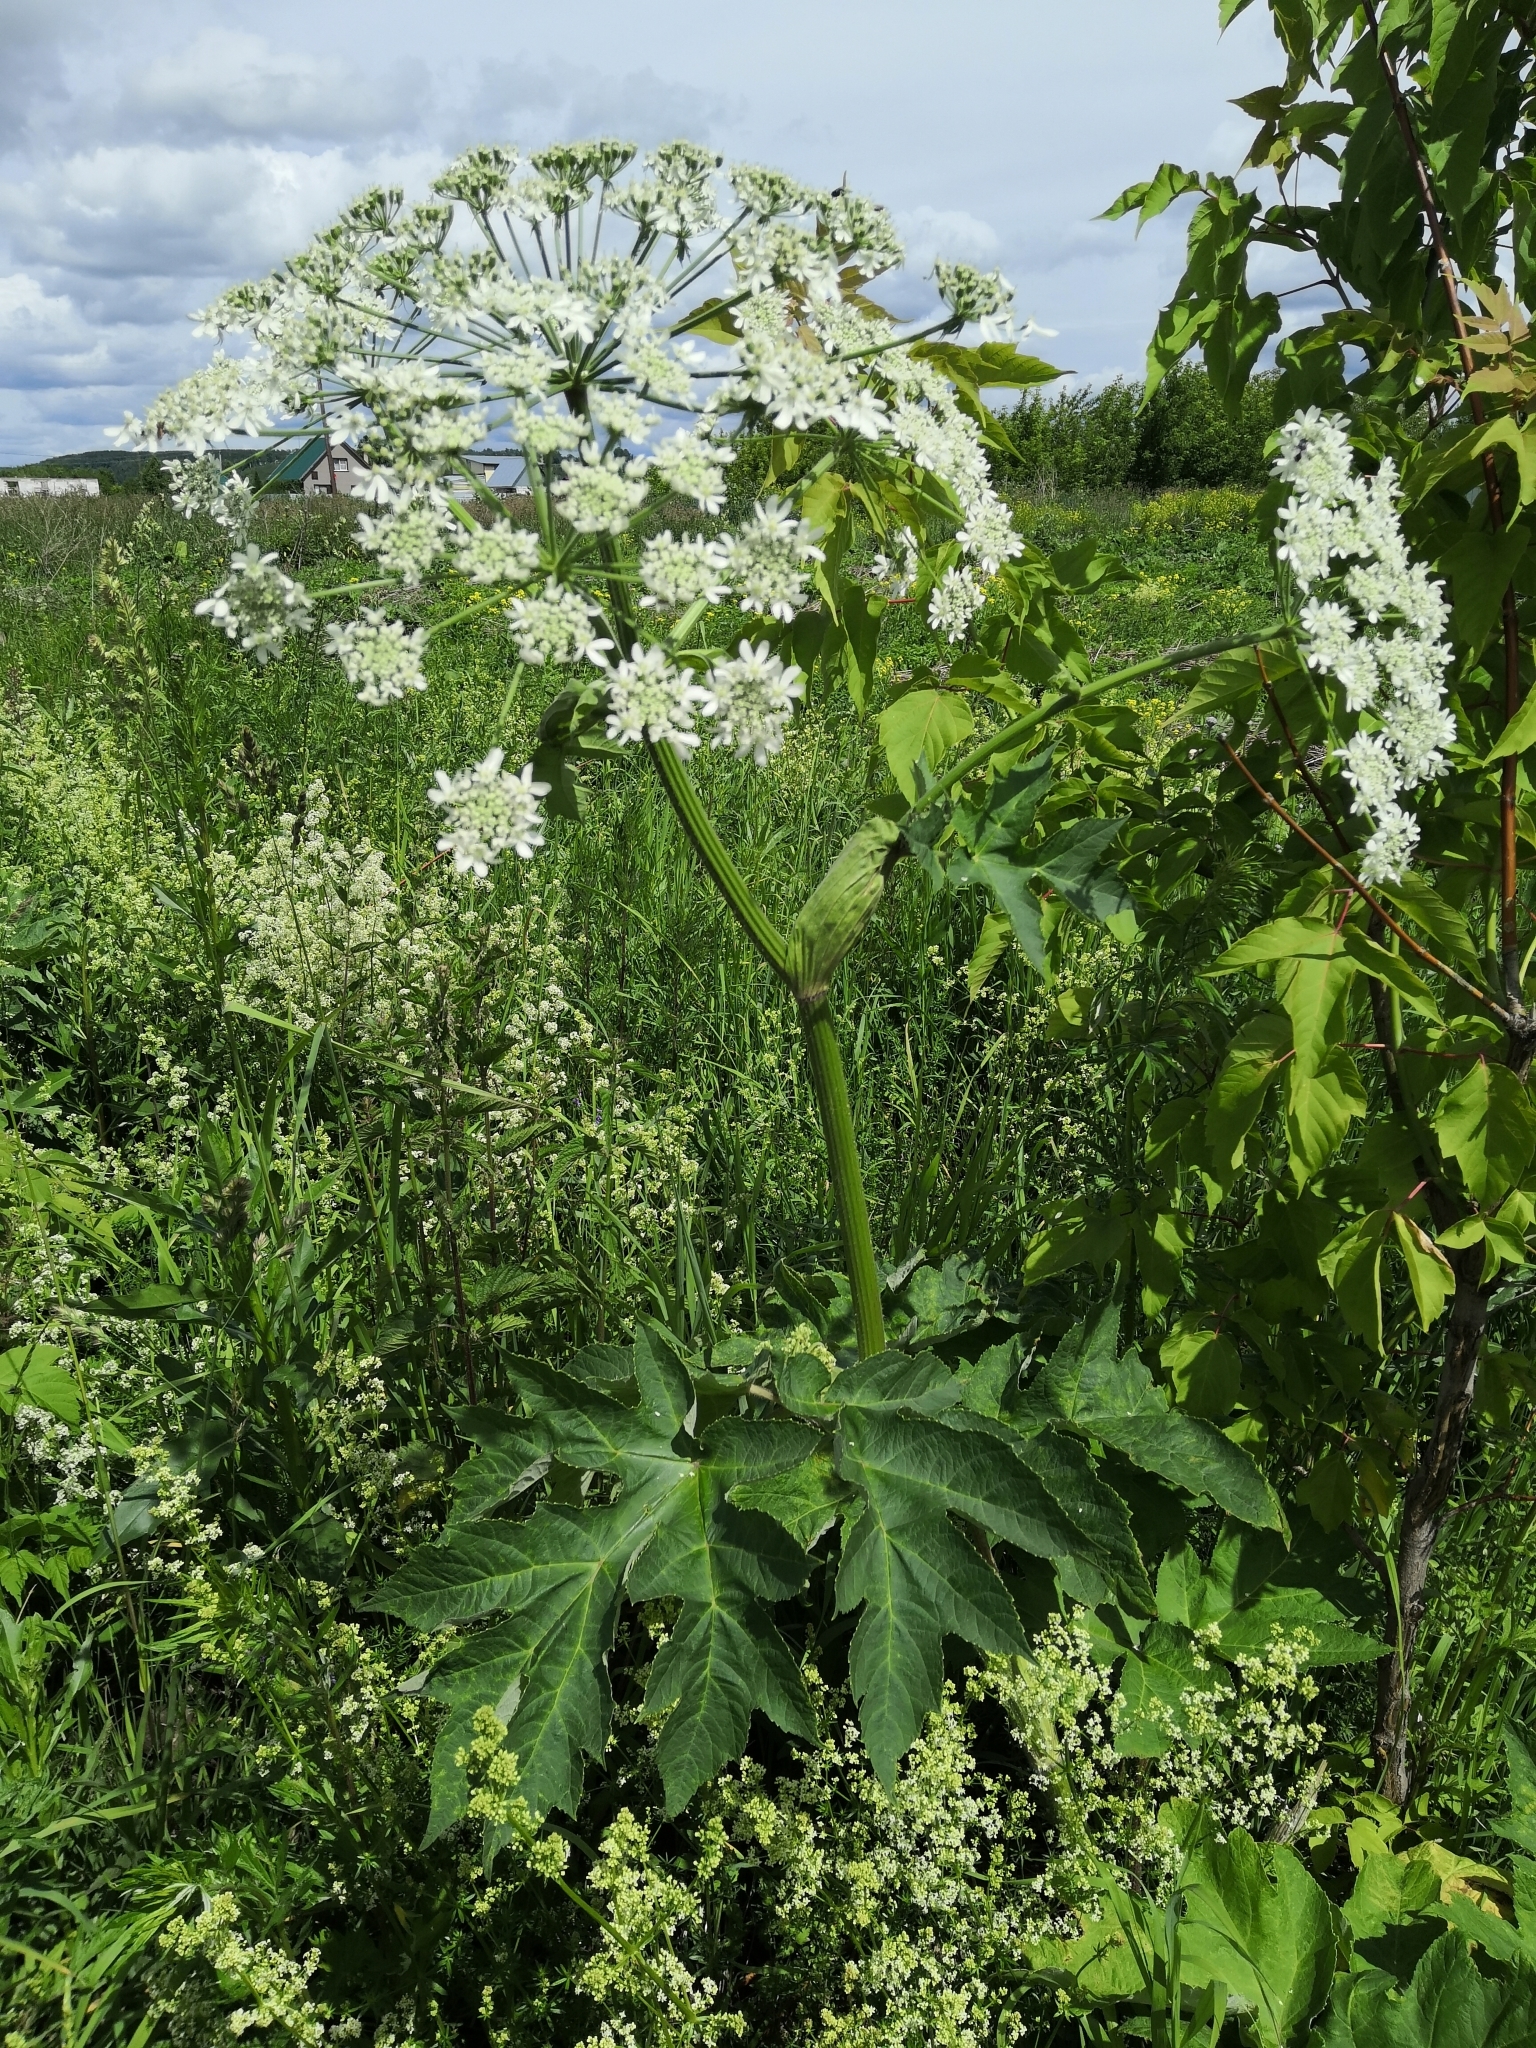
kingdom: Plantae
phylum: Tracheophyta
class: Magnoliopsida
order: Apiales
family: Apiaceae
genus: Heracleum
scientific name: Heracleum dissectum
